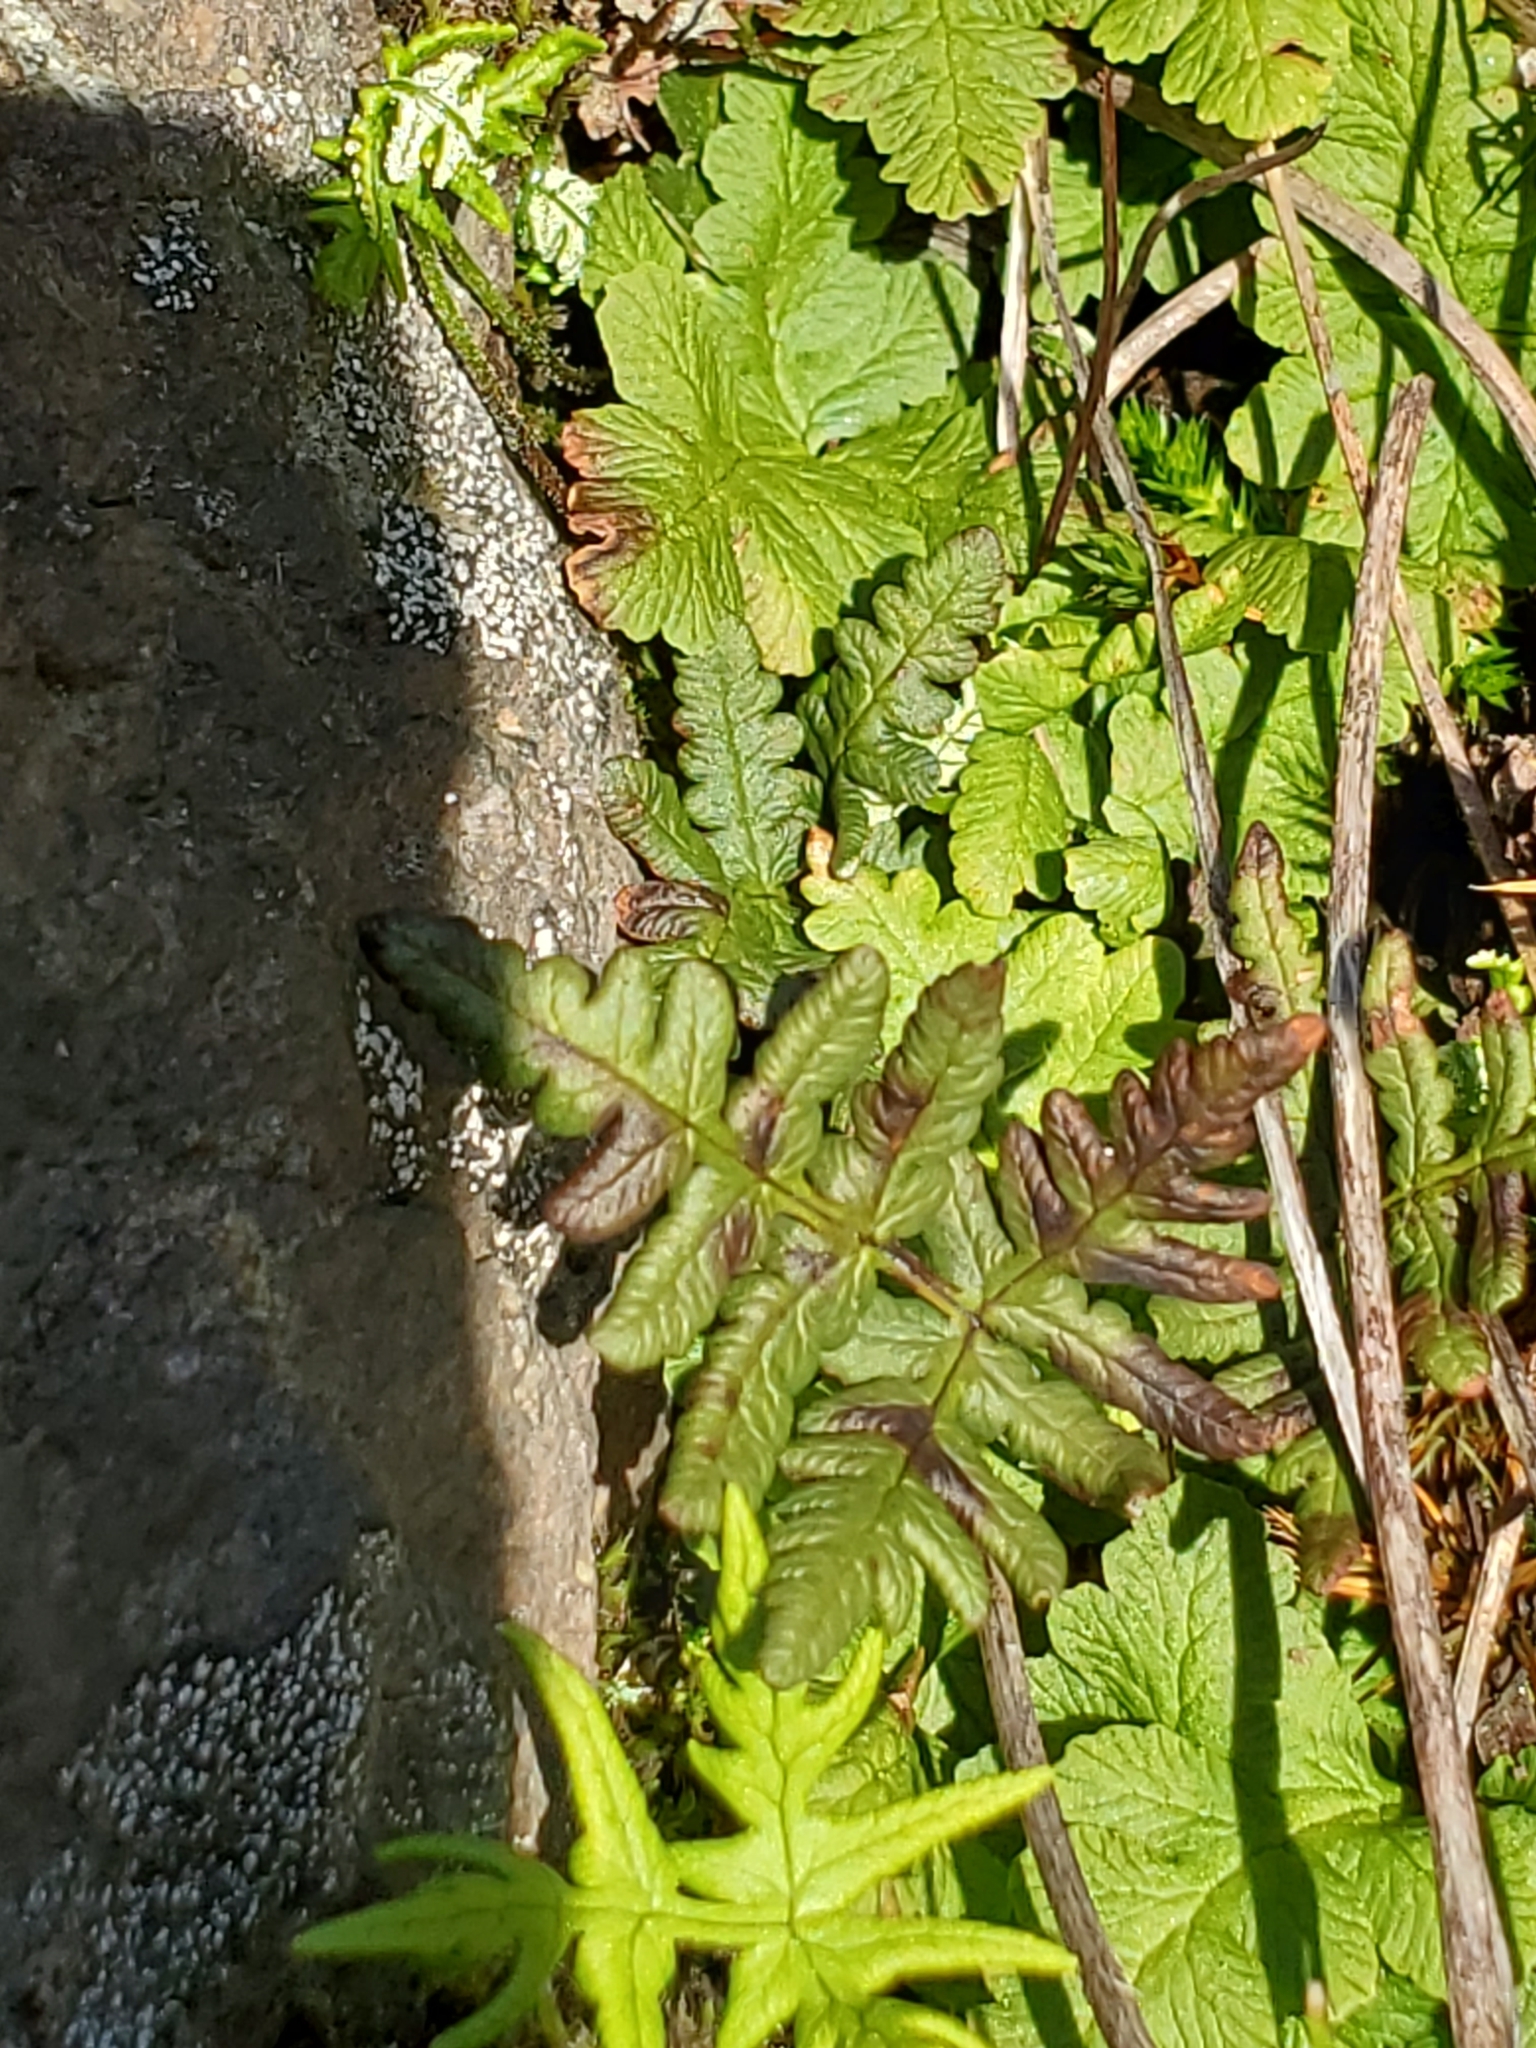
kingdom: Plantae
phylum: Tracheophyta
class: Polypodiopsida
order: Polypodiales
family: Pteridaceae
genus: Pentagramma
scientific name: Pentagramma triangularis
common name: Gold fern
